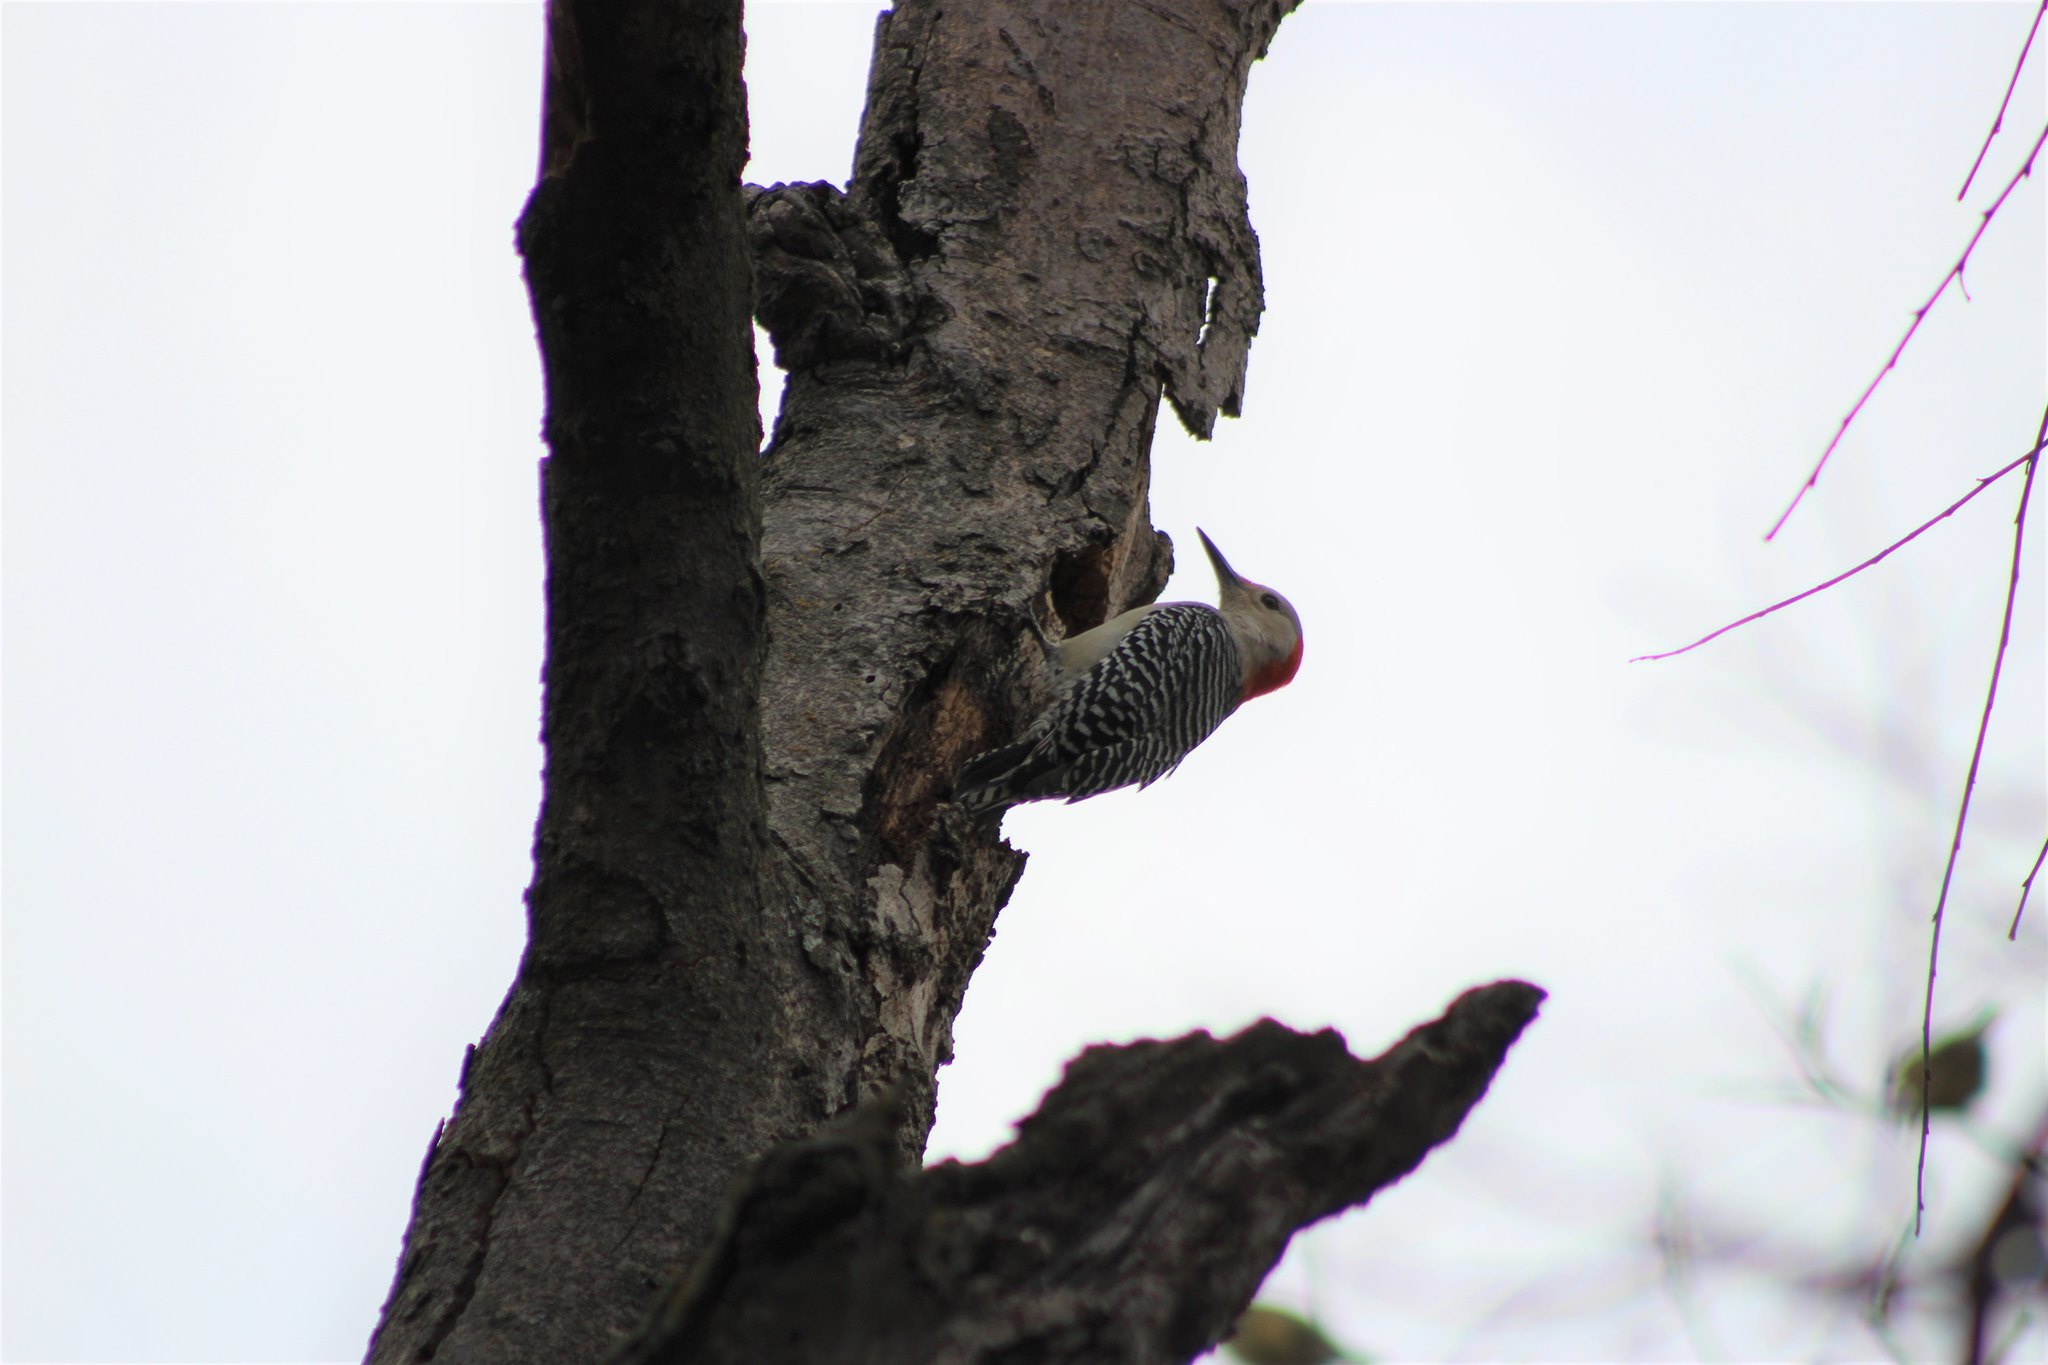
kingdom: Animalia
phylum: Chordata
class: Aves
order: Piciformes
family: Picidae
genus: Melanerpes
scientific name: Melanerpes carolinus
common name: Red-bellied woodpecker
